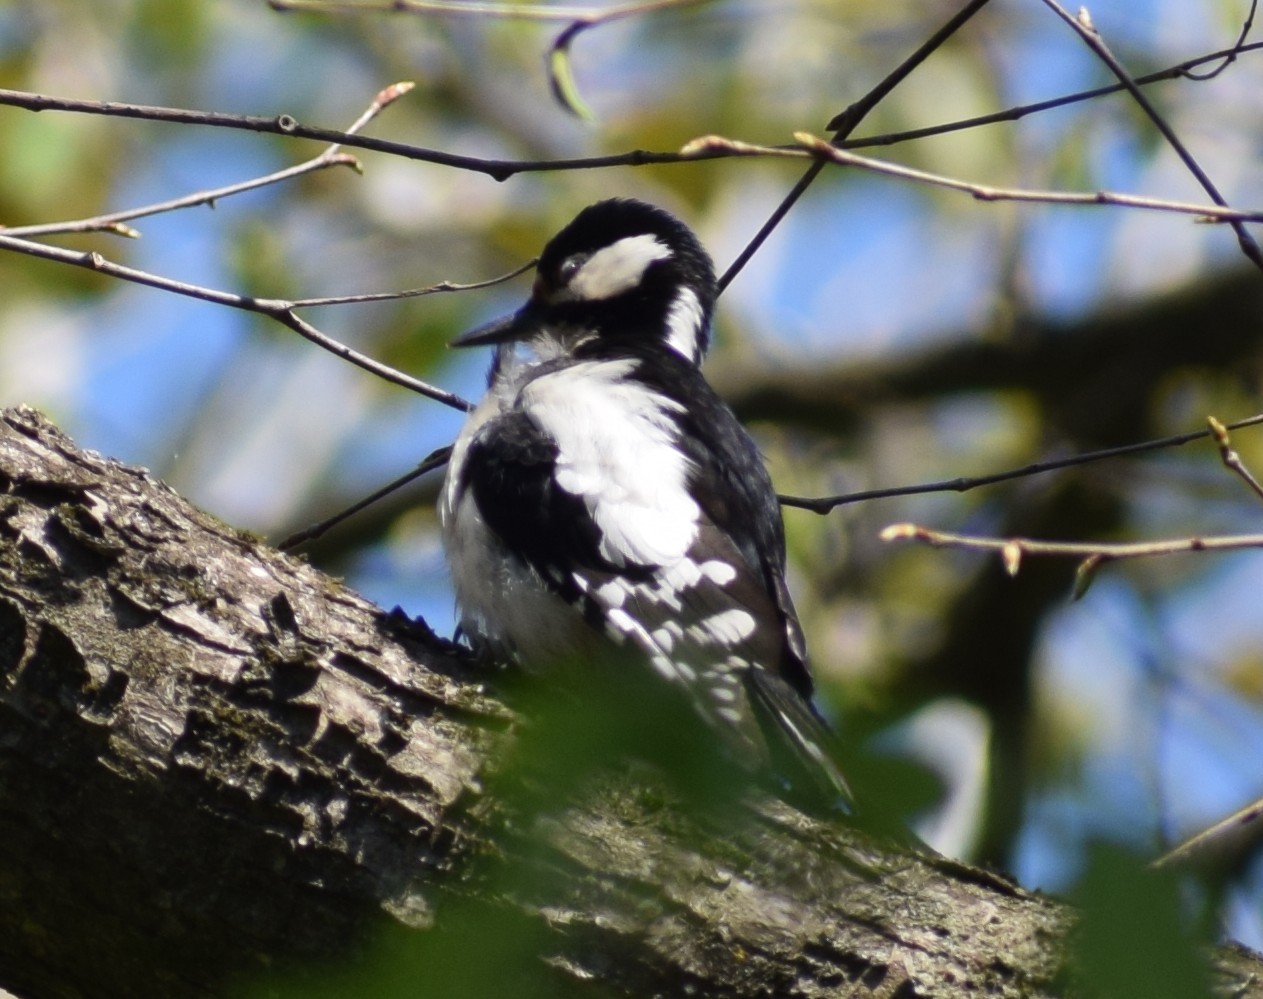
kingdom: Animalia
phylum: Chordata
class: Aves
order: Piciformes
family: Picidae
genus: Dendrocopos
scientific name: Dendrocopos major
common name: Great spotted woodpecker
